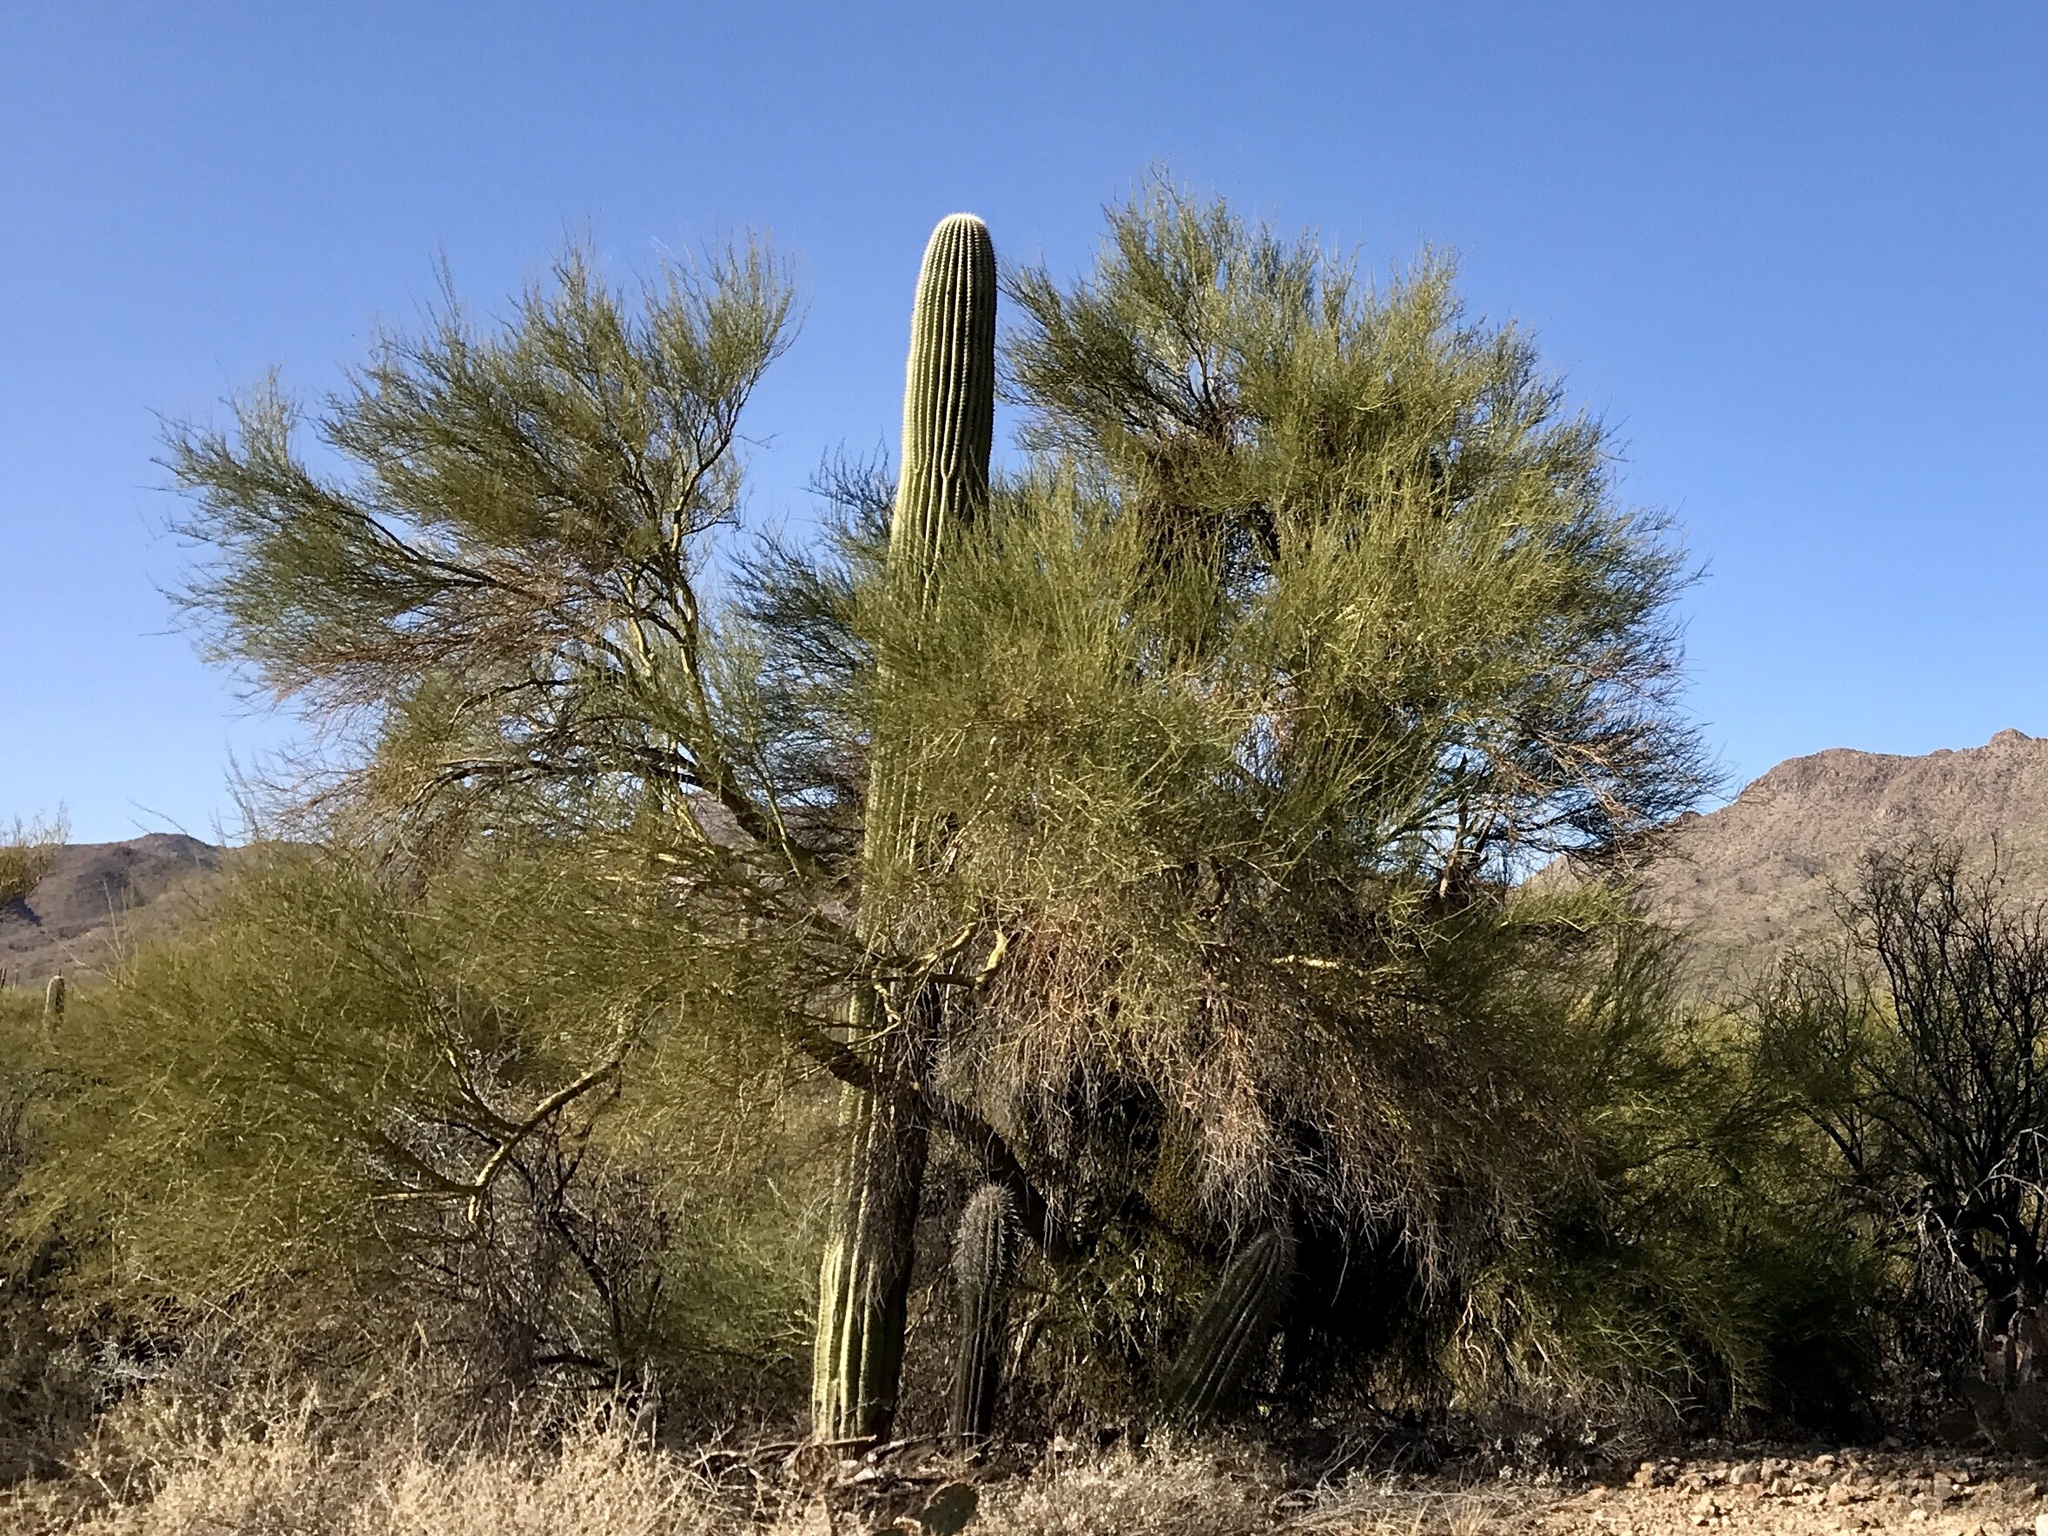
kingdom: Plantae
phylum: Tracheophyta
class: Magnoliopsida
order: Fabales
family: Fabaceae
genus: Parkinsonia
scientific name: Parkinsonia microphylla
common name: Yellow paloverde
